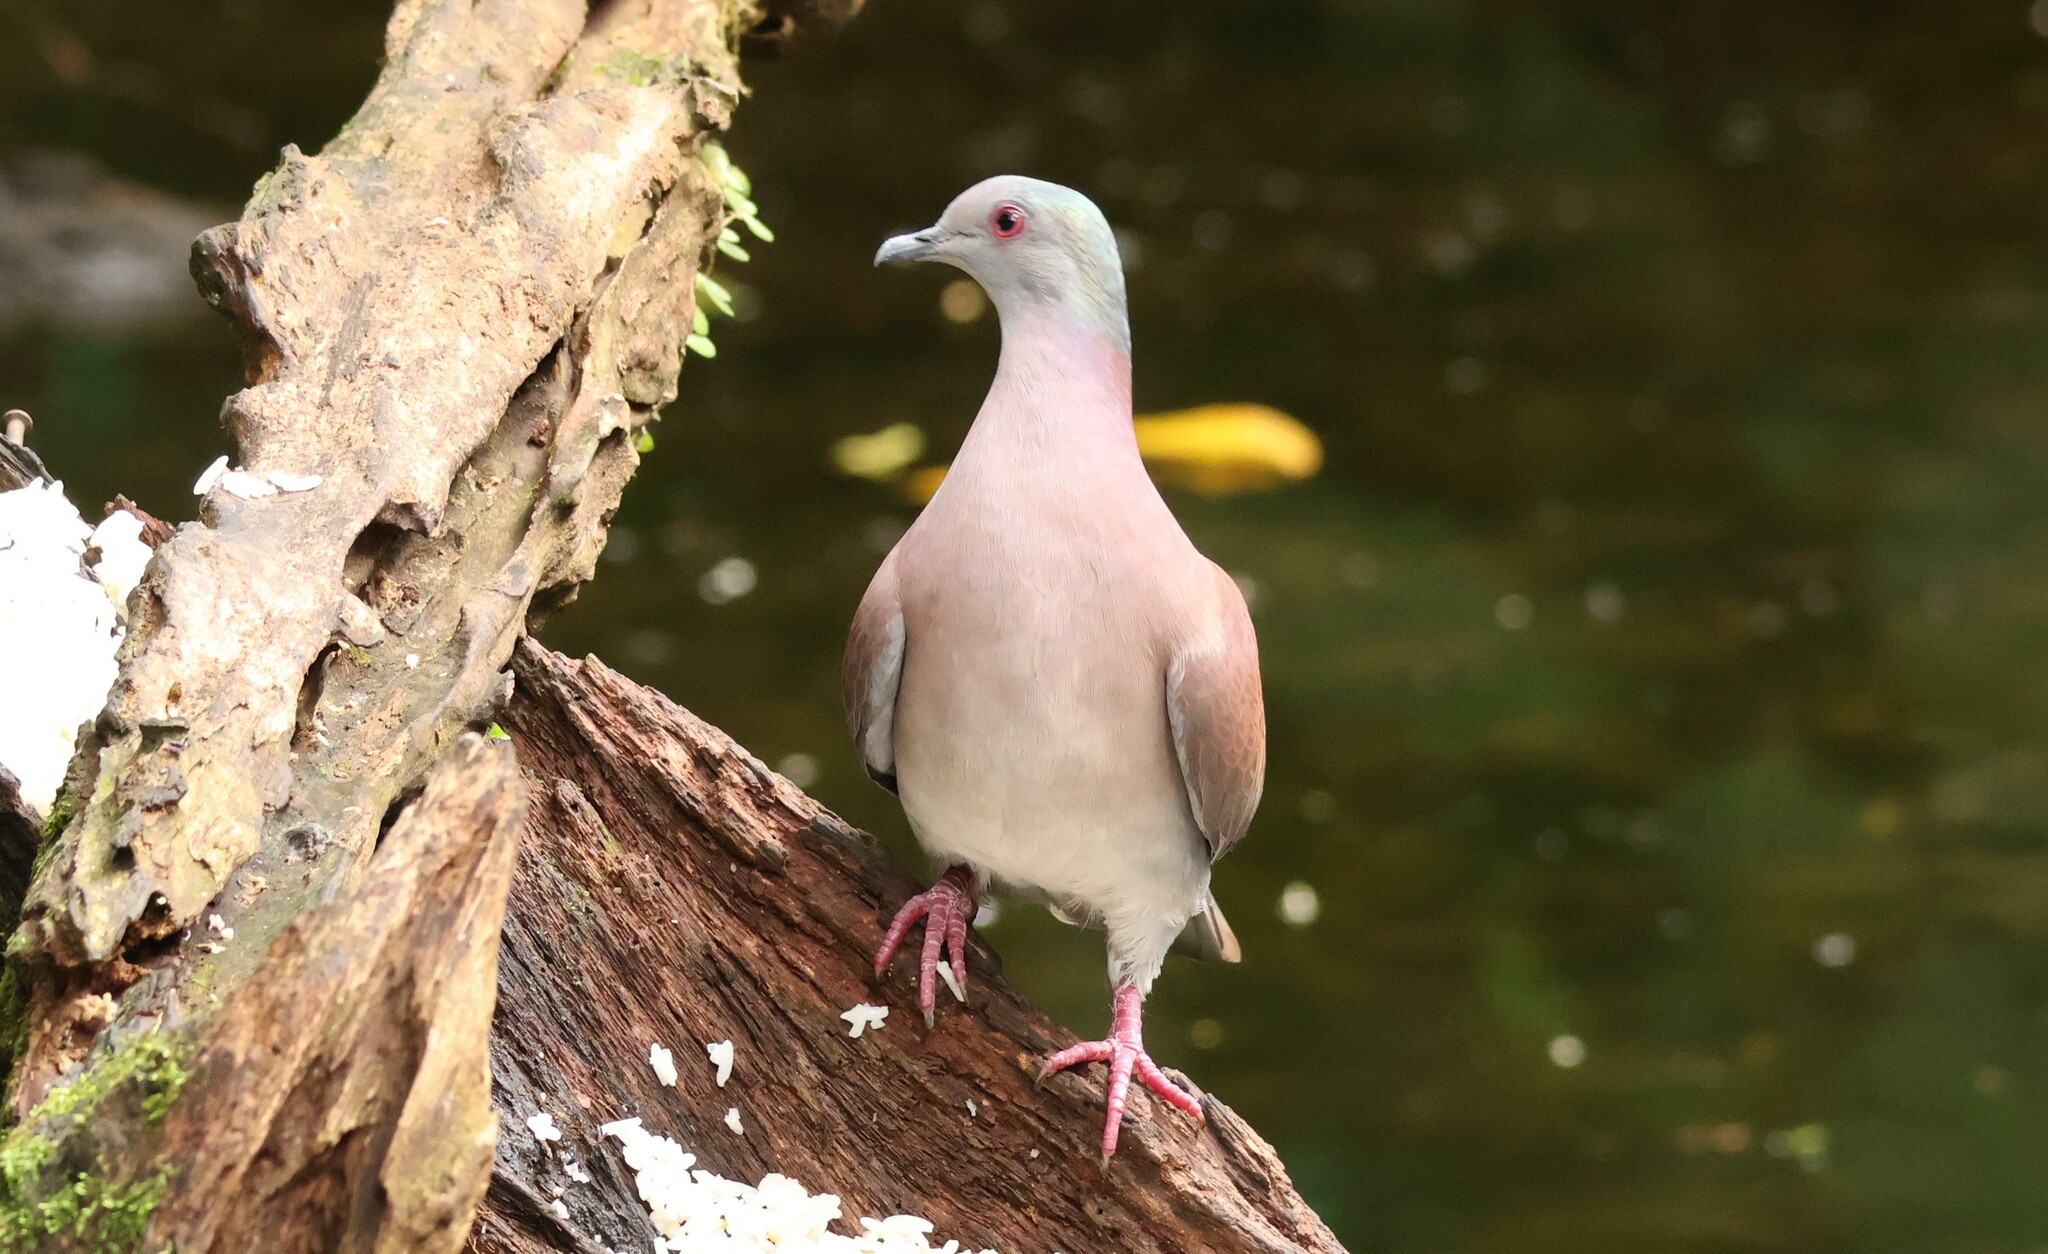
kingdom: Animalia
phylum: Chordata
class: Aves
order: Columbiformes
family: Columbidae
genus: Patagioenas
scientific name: Patagioenas cayennensis
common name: Pale-vented pigeon
